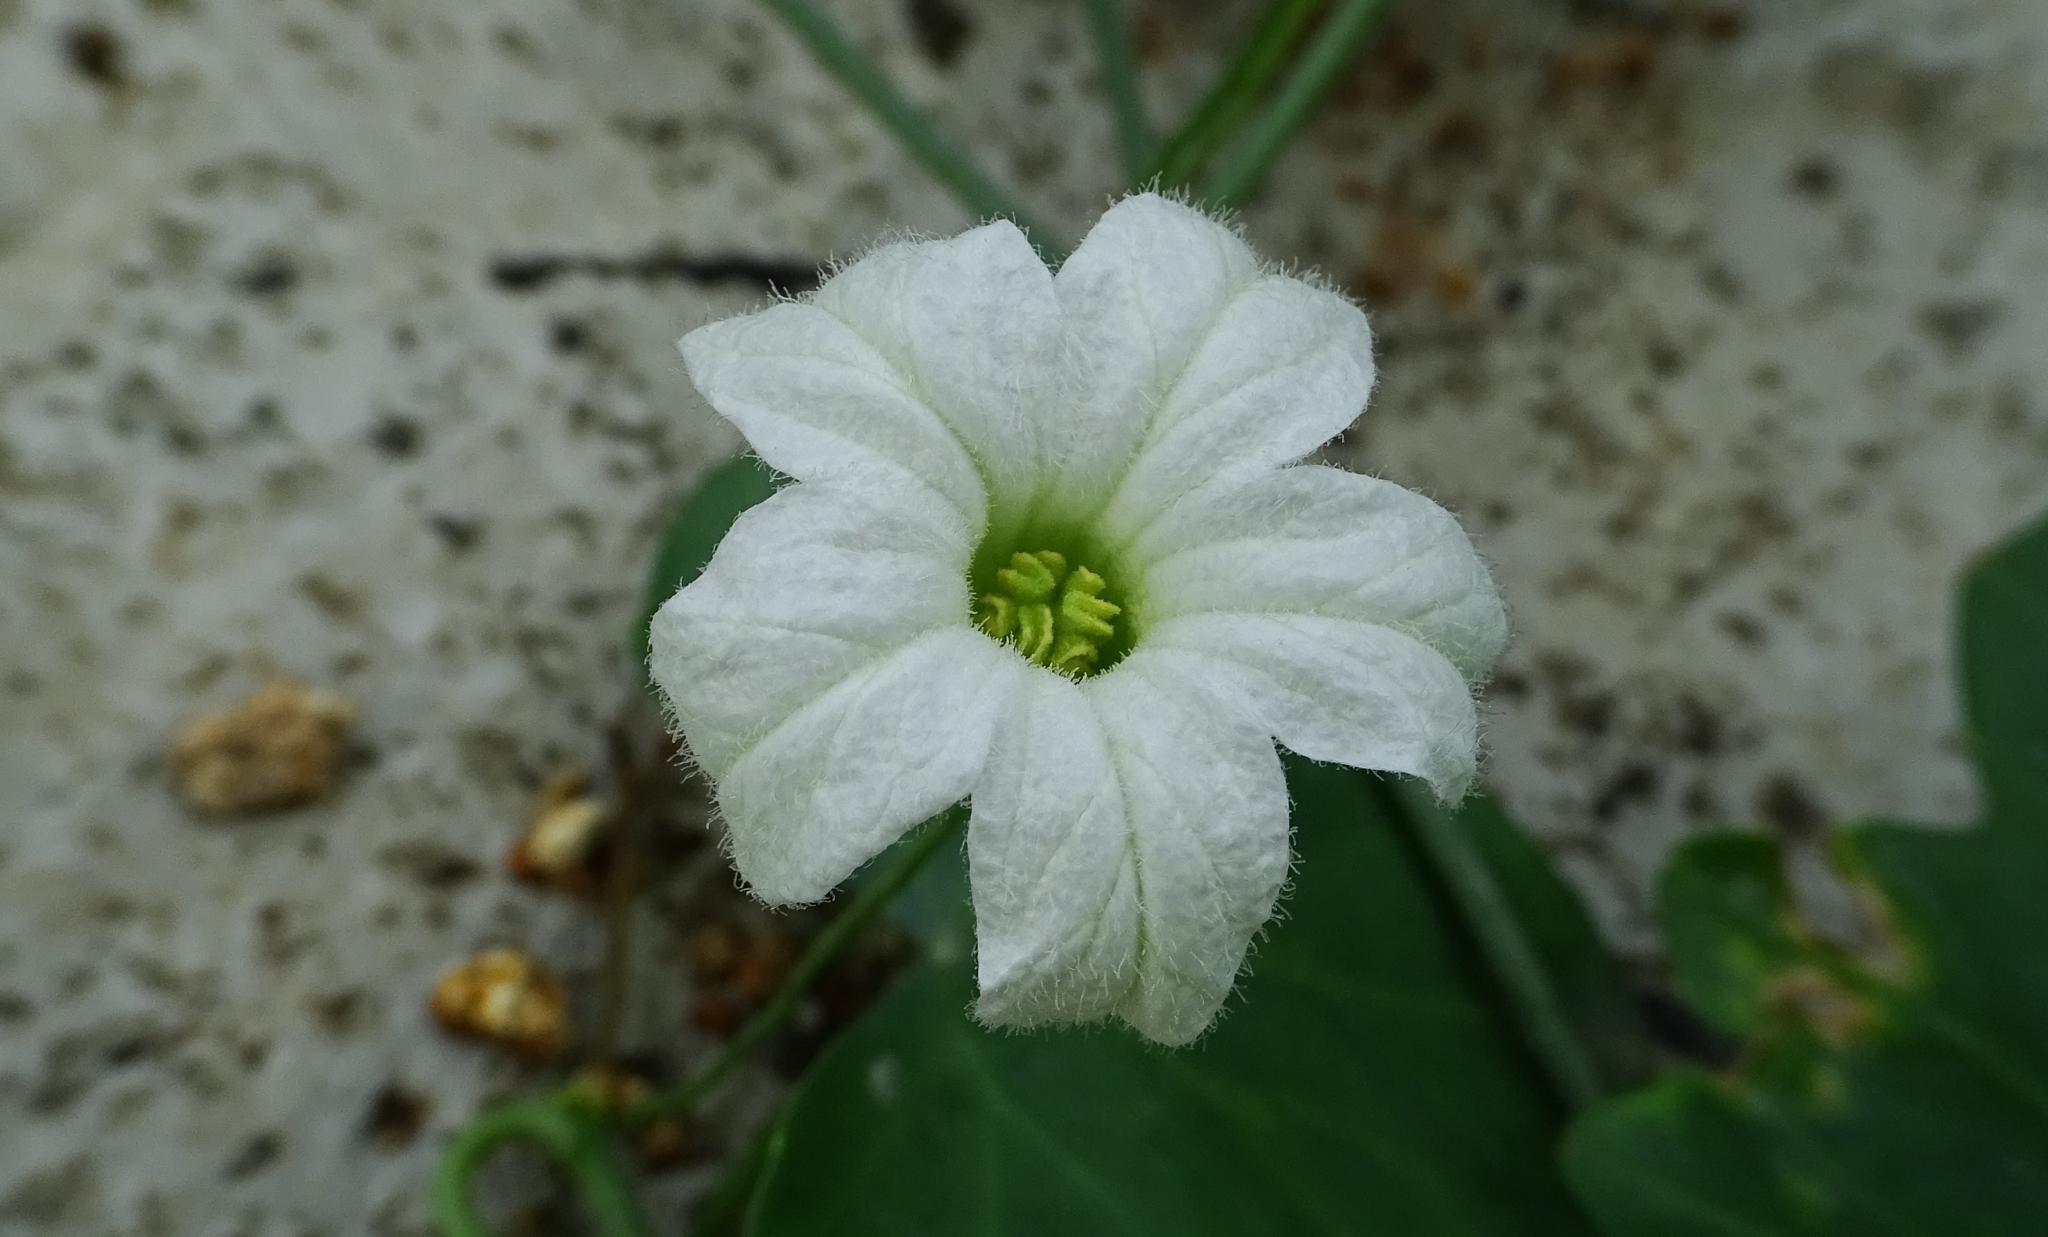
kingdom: Plantae
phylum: Tracheophyta
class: Magnoliopsida
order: Cucurbitales
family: Cucurbitaceae
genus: Coccinia
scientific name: Coccinia grandis
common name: Ivy gourd
